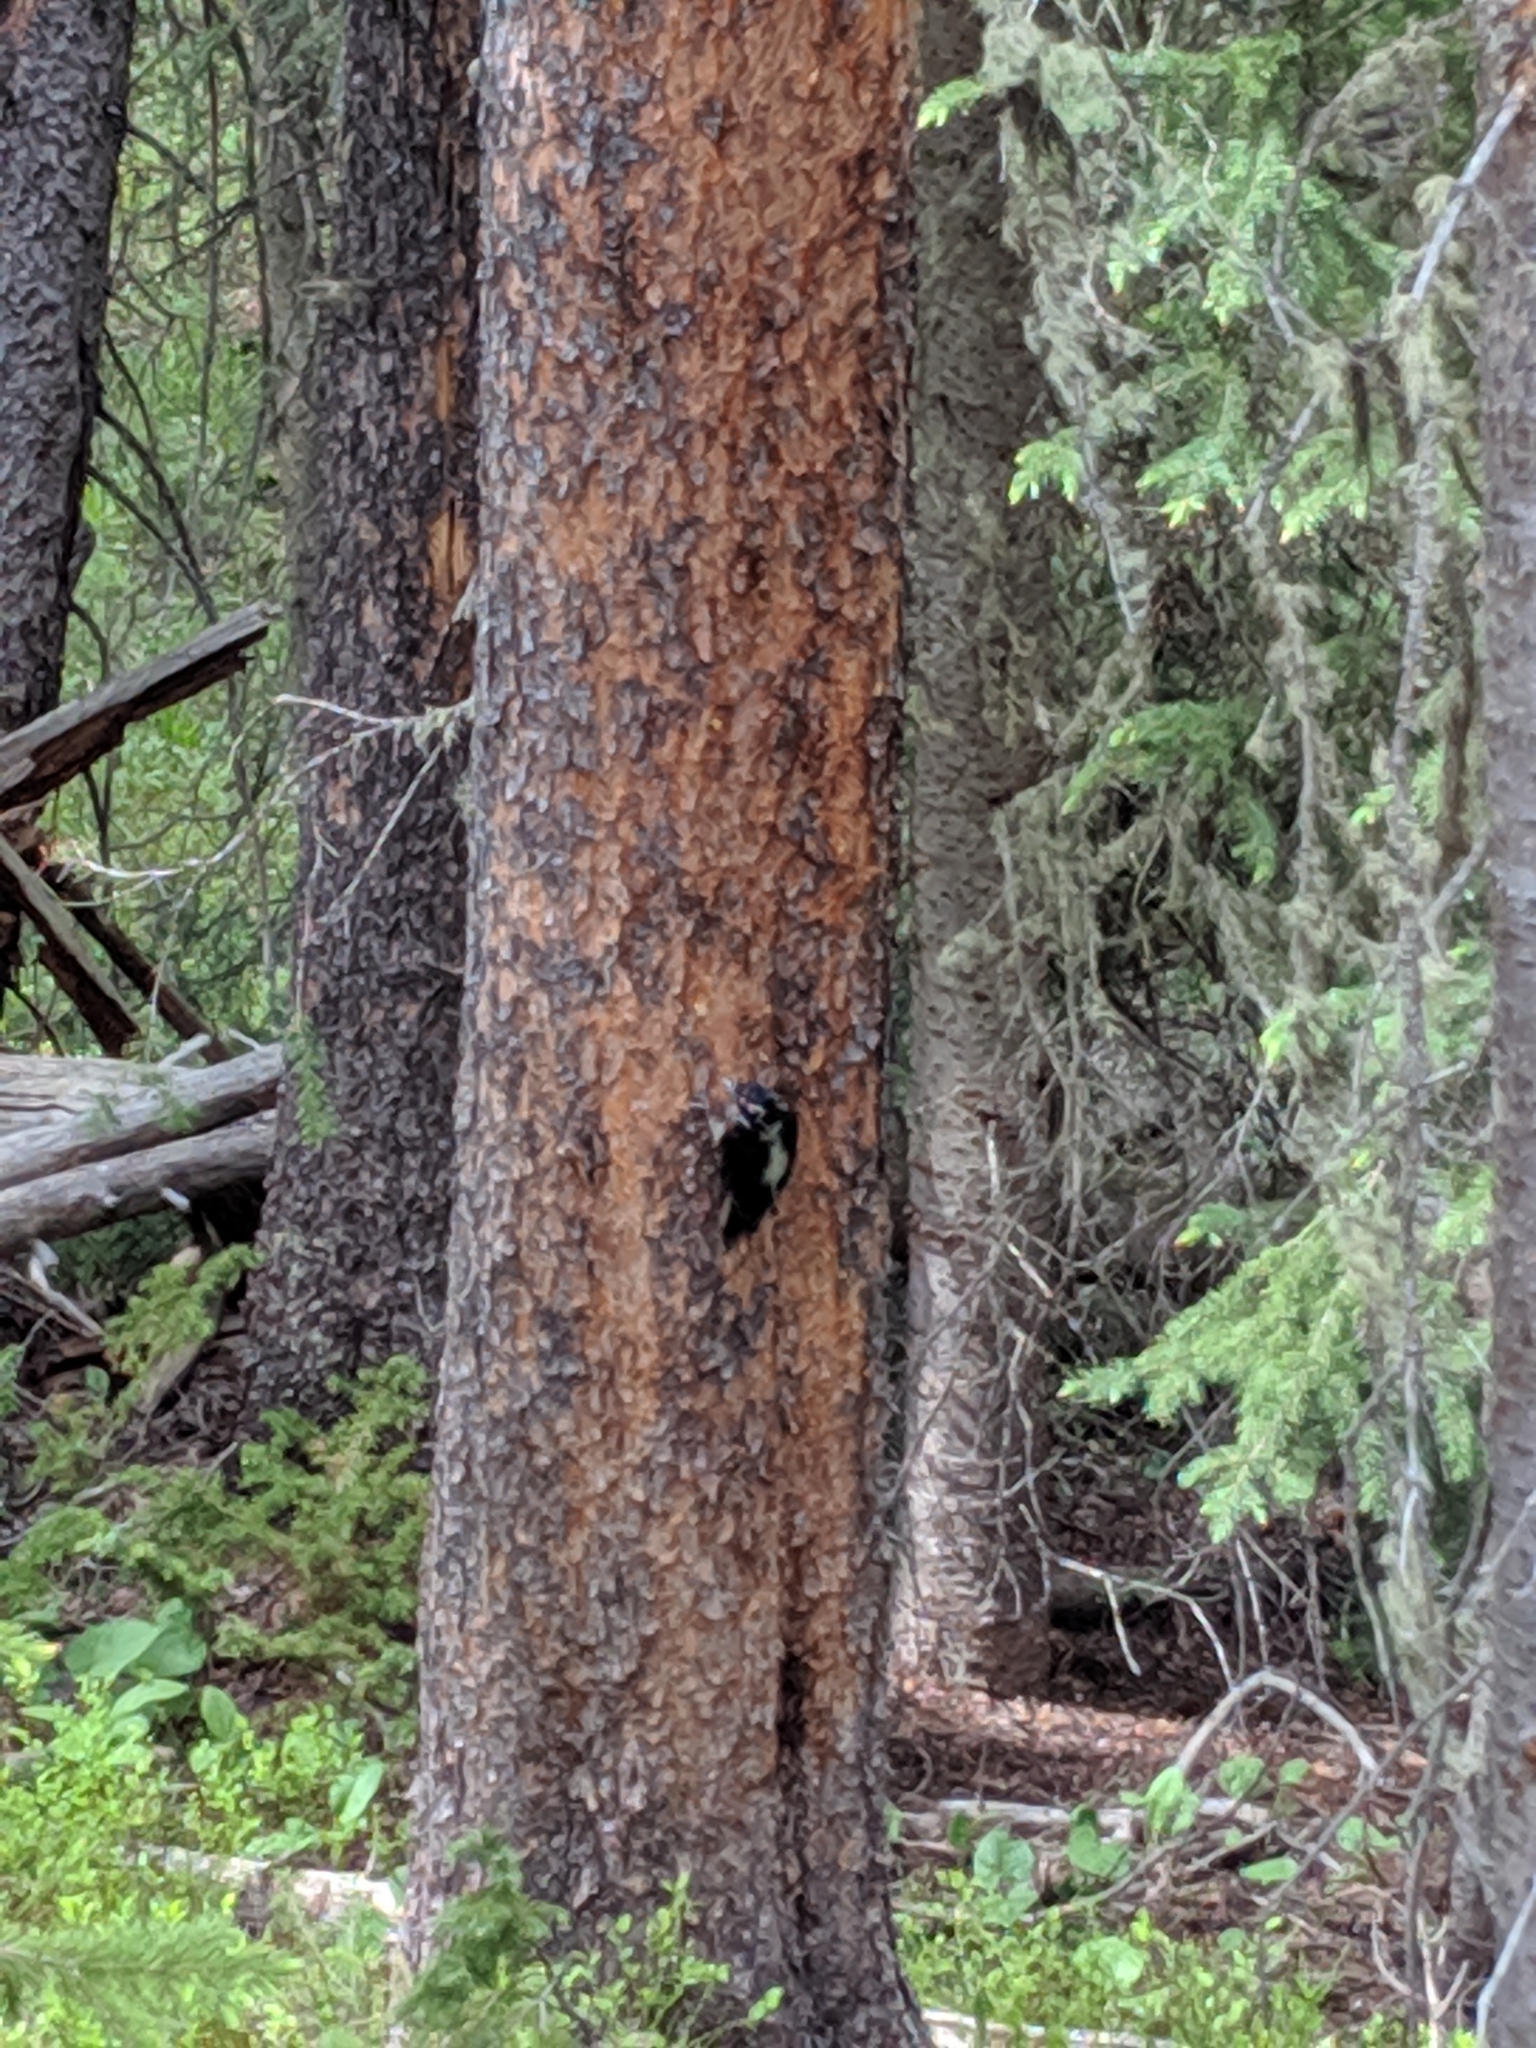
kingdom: Animalia
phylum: Chordata
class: Aves
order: Piciformes
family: Picidae
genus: Picoides
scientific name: Picoides dorsalis
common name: American three-toed woodpecker
